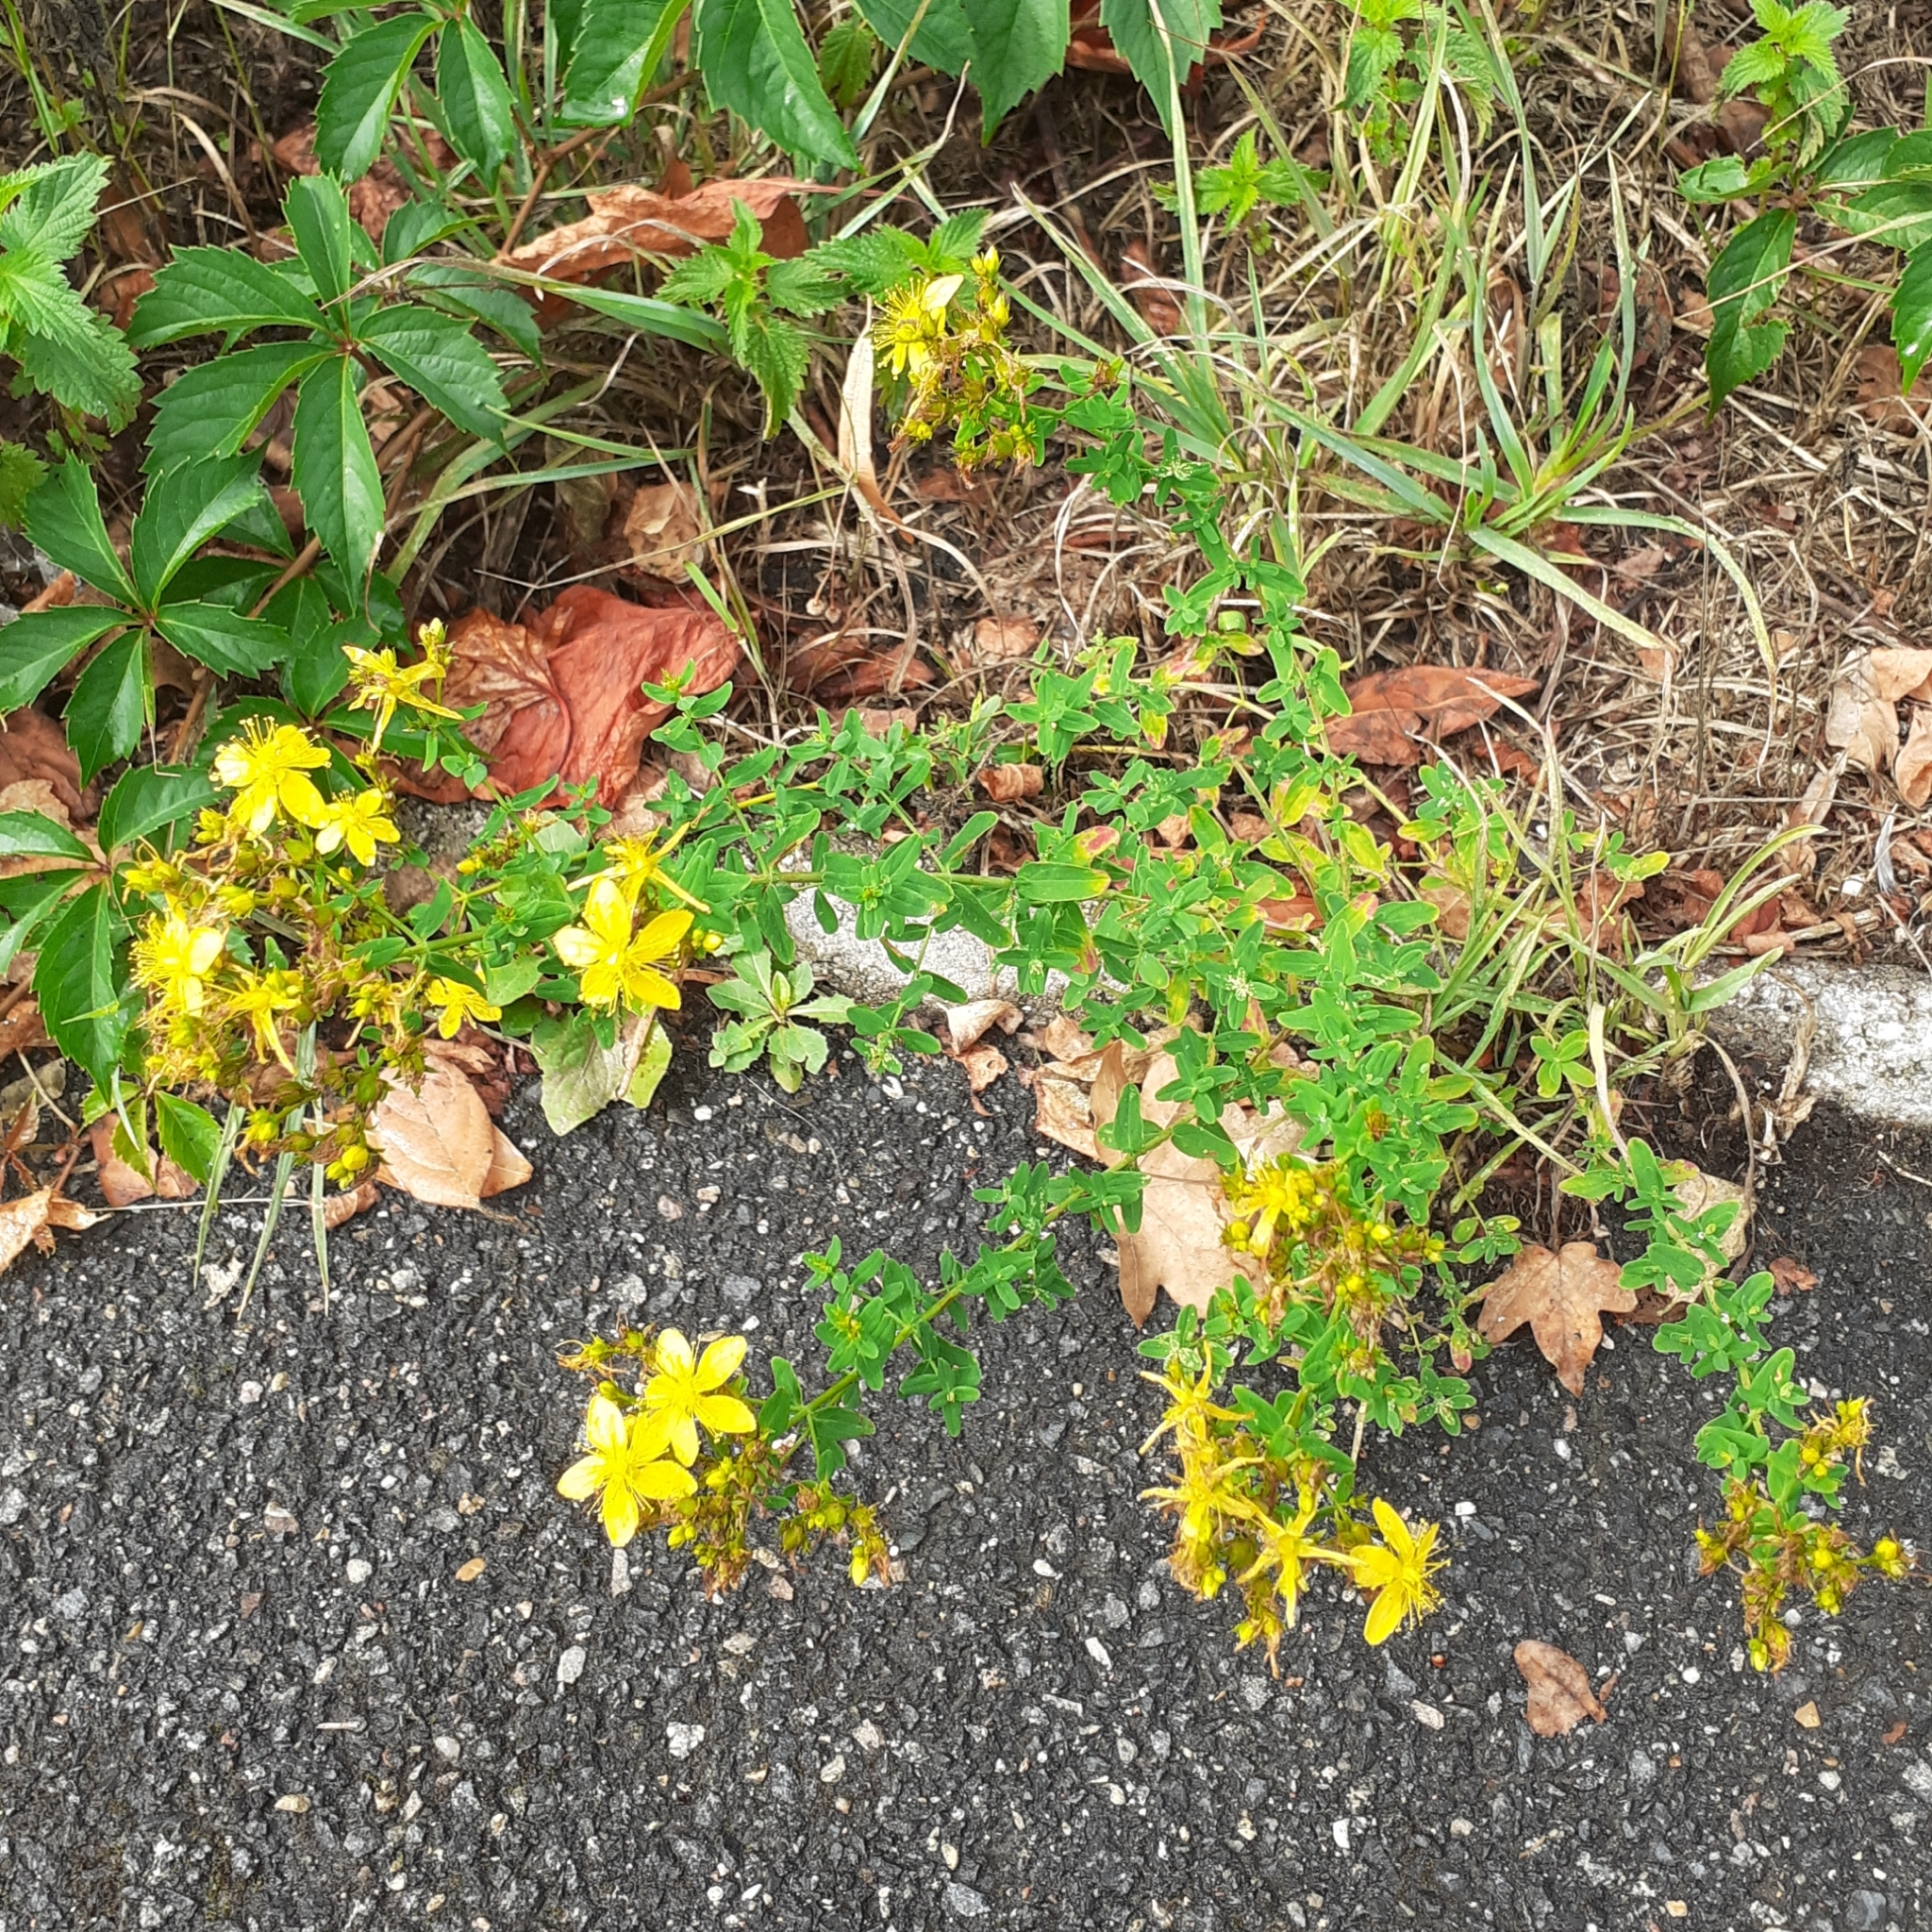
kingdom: Plantae
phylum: Tracheophyta
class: Magnoliopsida
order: Malpighiales
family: Hypericaceae
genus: Hypericum
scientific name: Hypericum perforatum
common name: Common st. johnswort
